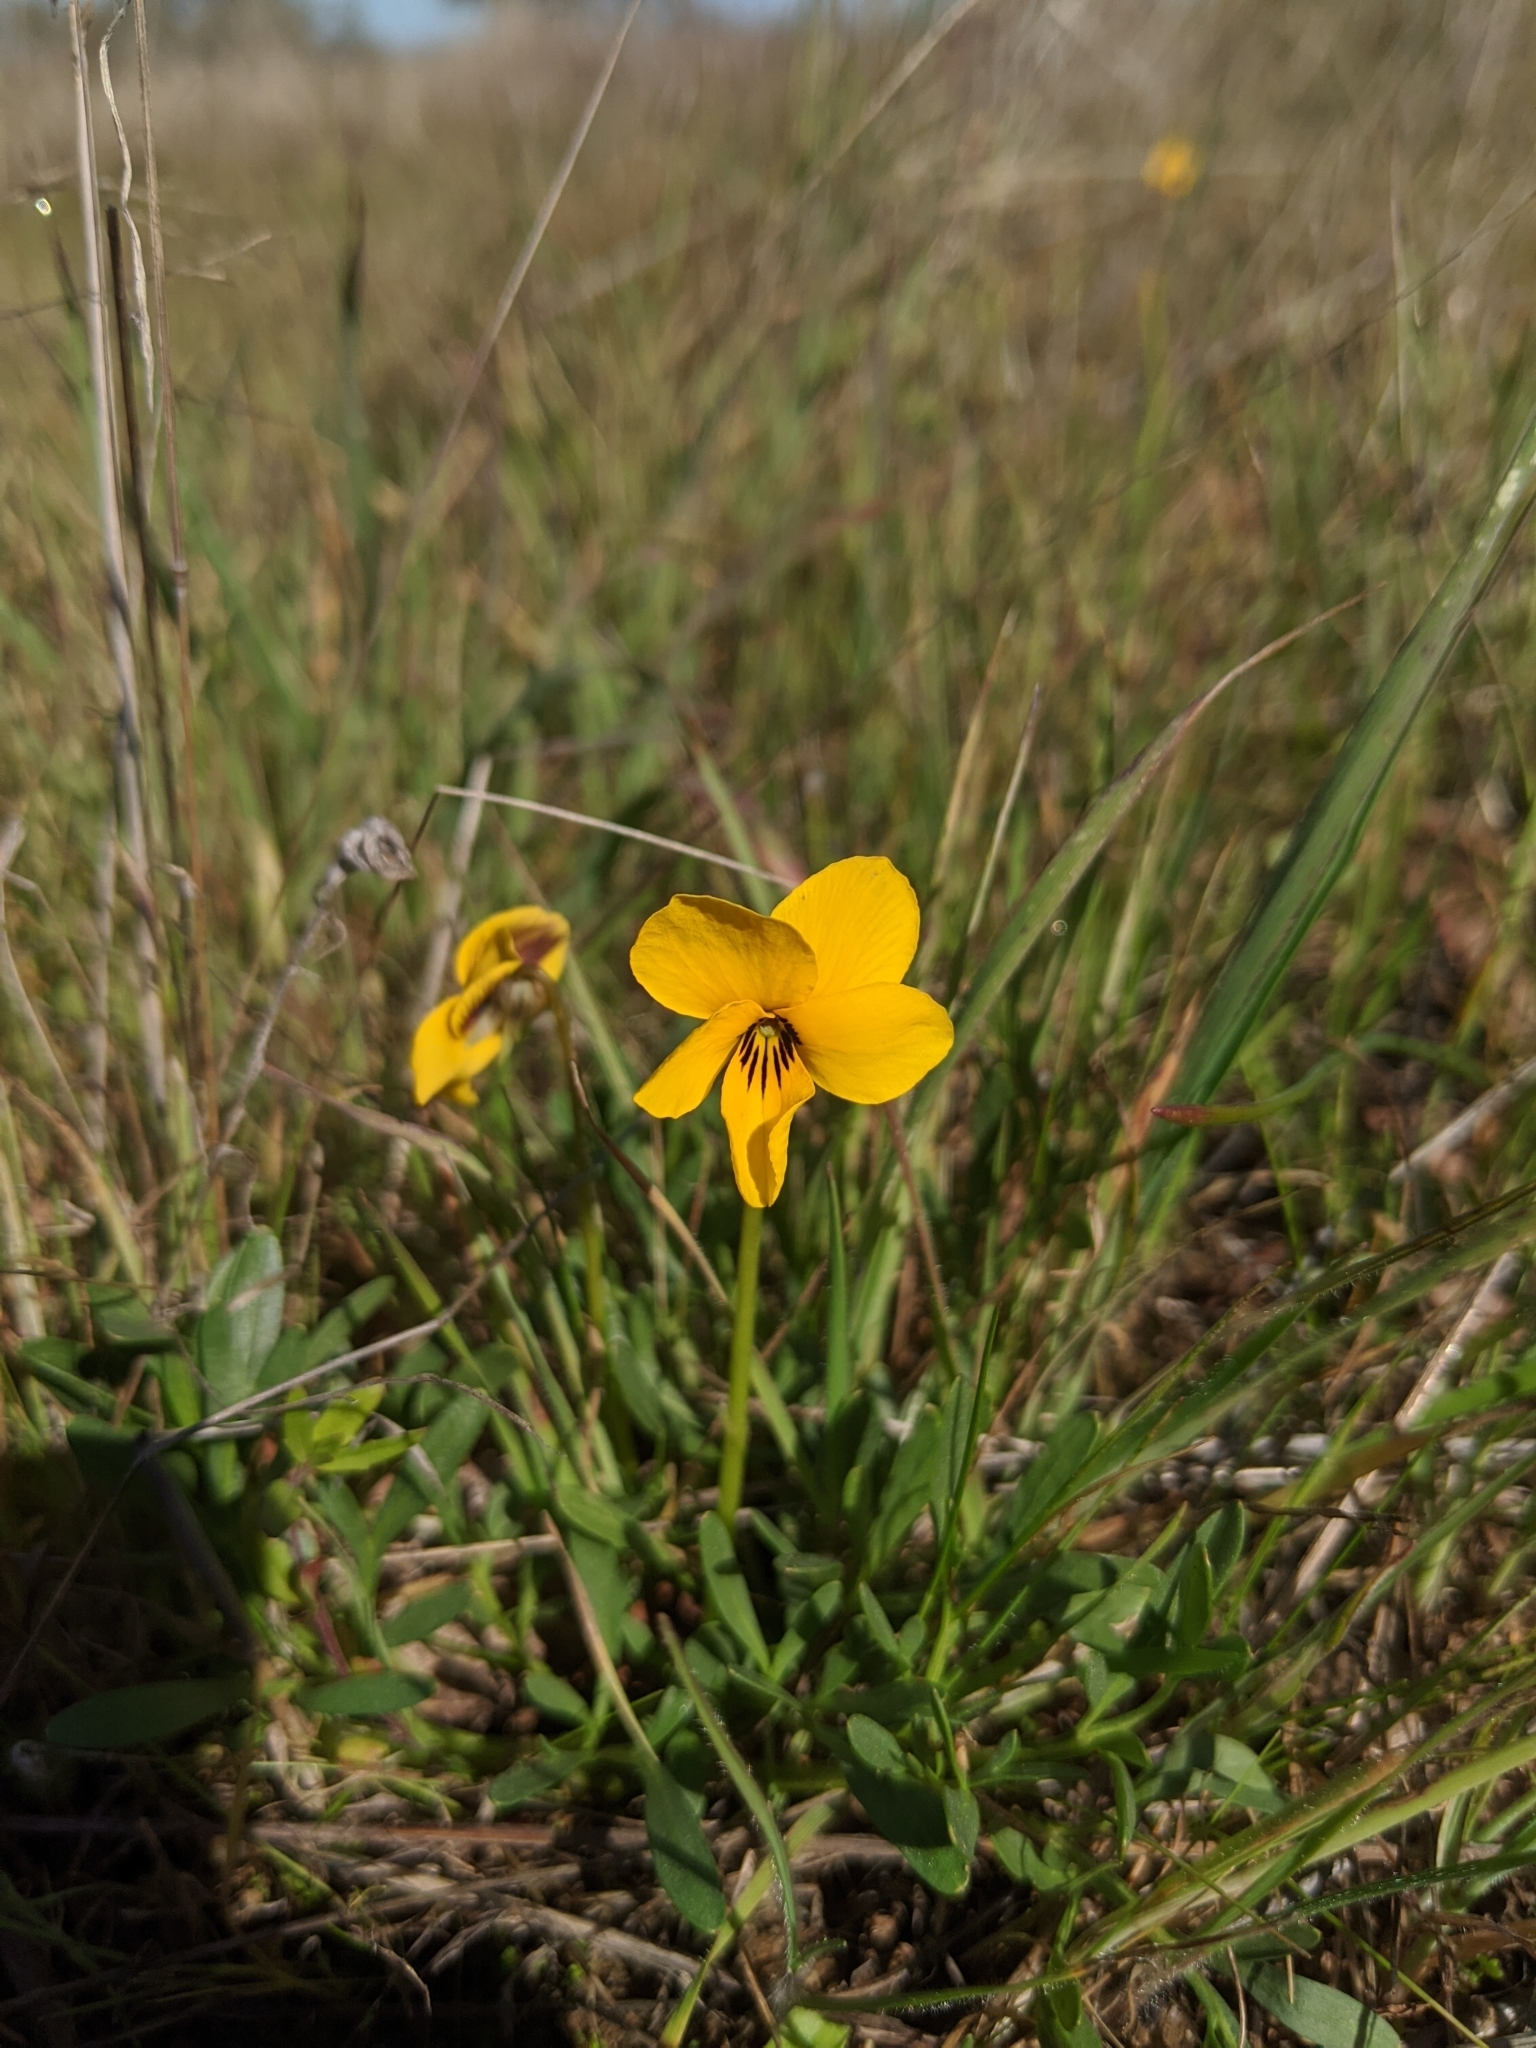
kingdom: Plantae
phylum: Tracheophyta
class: Magnoliopsida
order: Malpighiales
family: Violaceae
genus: Viola
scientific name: Viola douglasii
